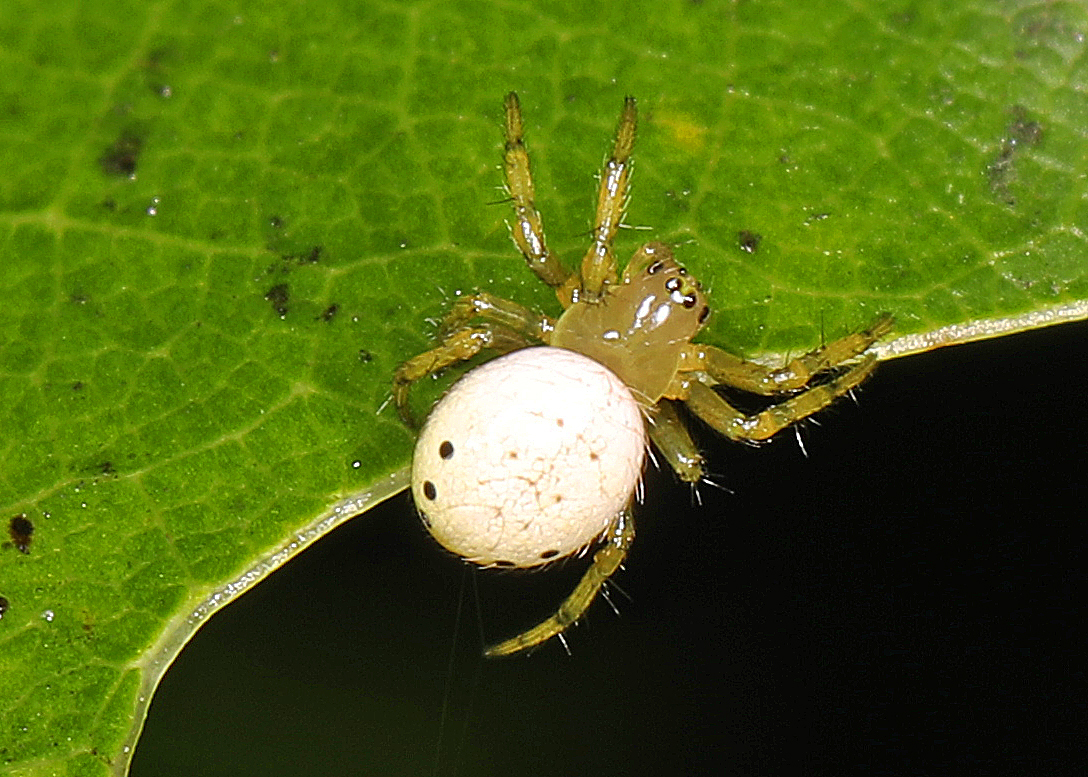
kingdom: Animalia
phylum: Arthropoda
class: Arachnida
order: Araneae
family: Araneidae
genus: Araniella
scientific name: Araniella displicata
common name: Sixspotted orb weaver
